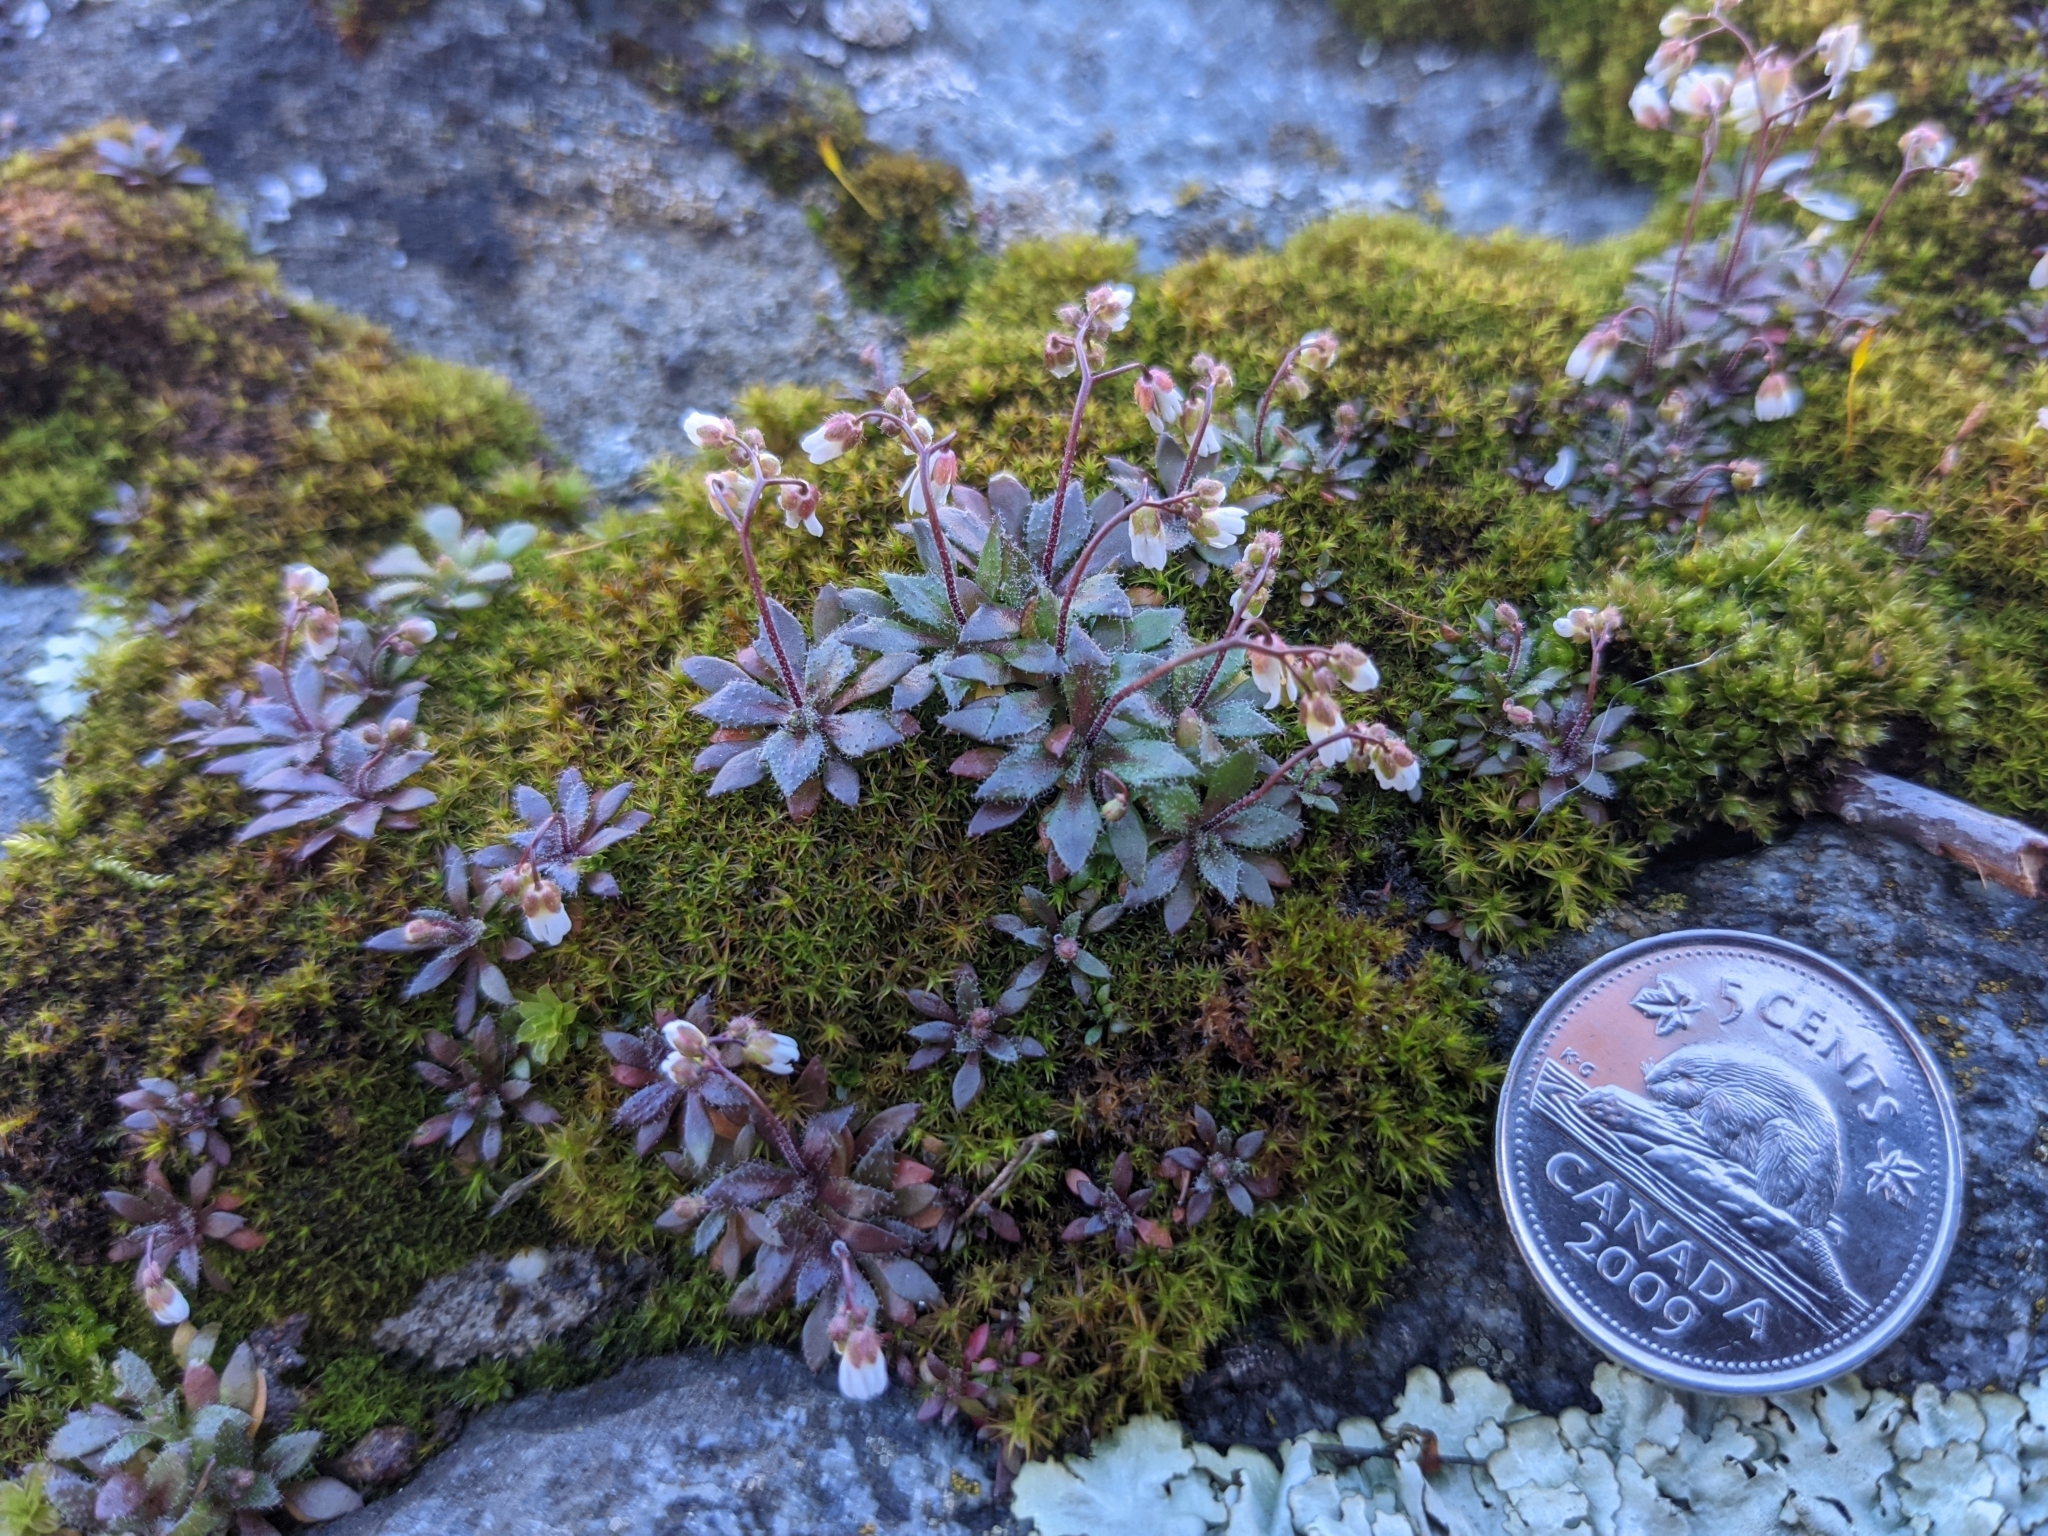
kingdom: Plantae
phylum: Tracheophyta
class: Magnoliopsida
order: Brassicales
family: Brassicaceae
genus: Draba
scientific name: Draba verna
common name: Spring draba
